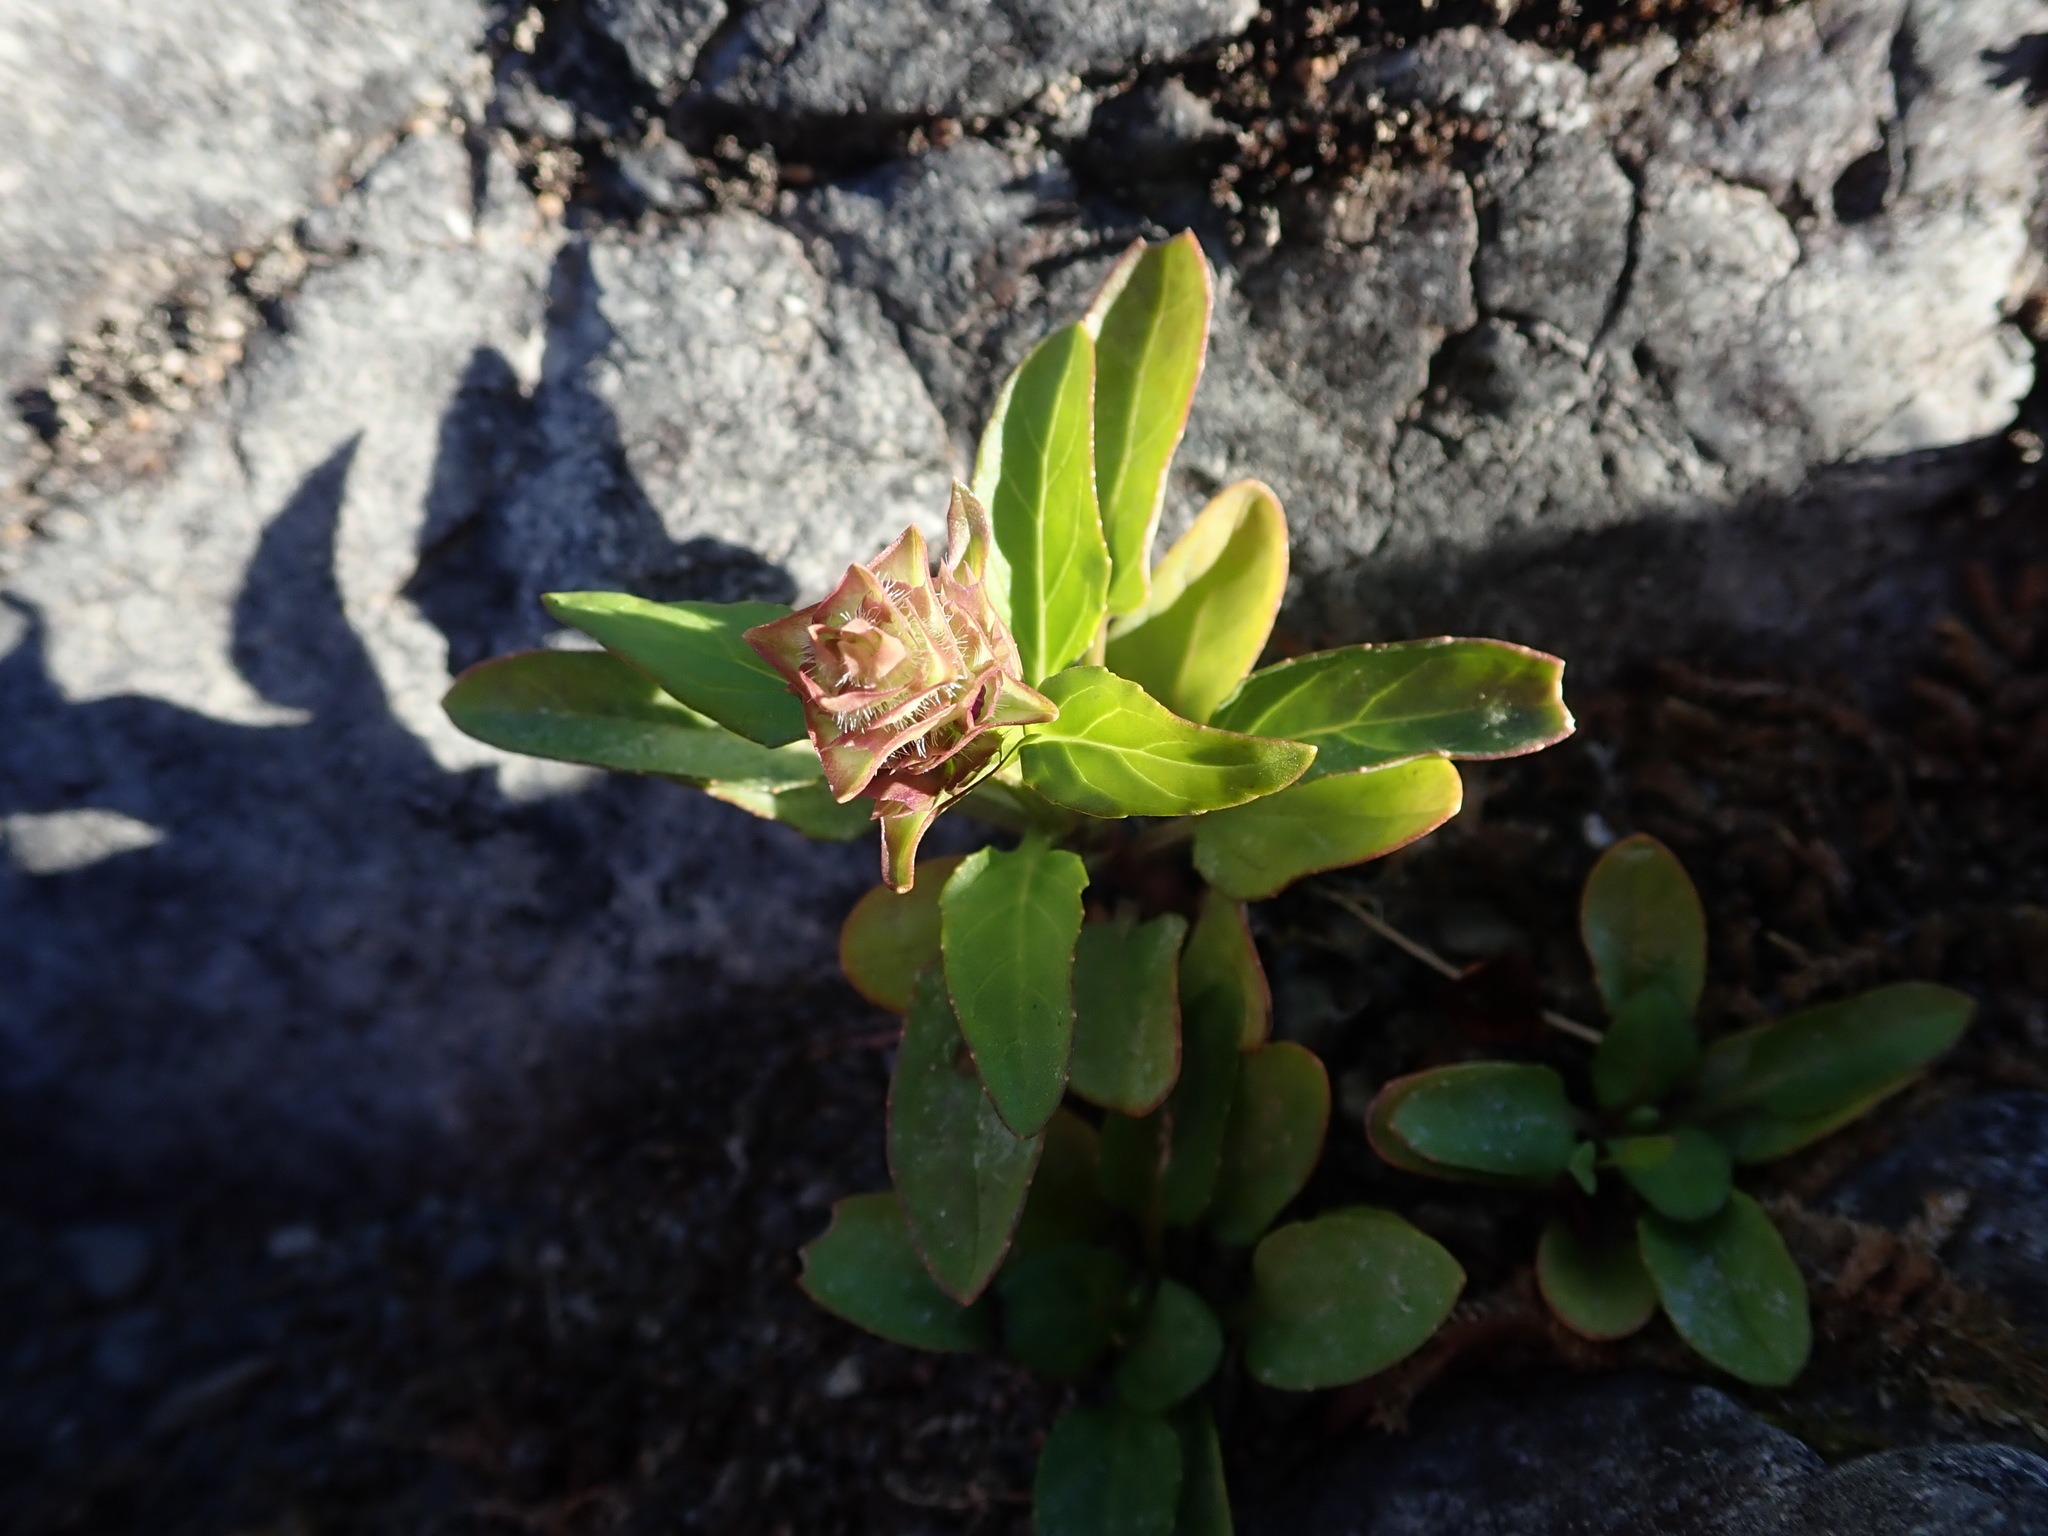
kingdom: Plantae
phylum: Tracheophyta
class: Magnoliopsida
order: Lamiales
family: Lamiaceae
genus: Prunella
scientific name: Prunella vulgaris
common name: Heal-all
